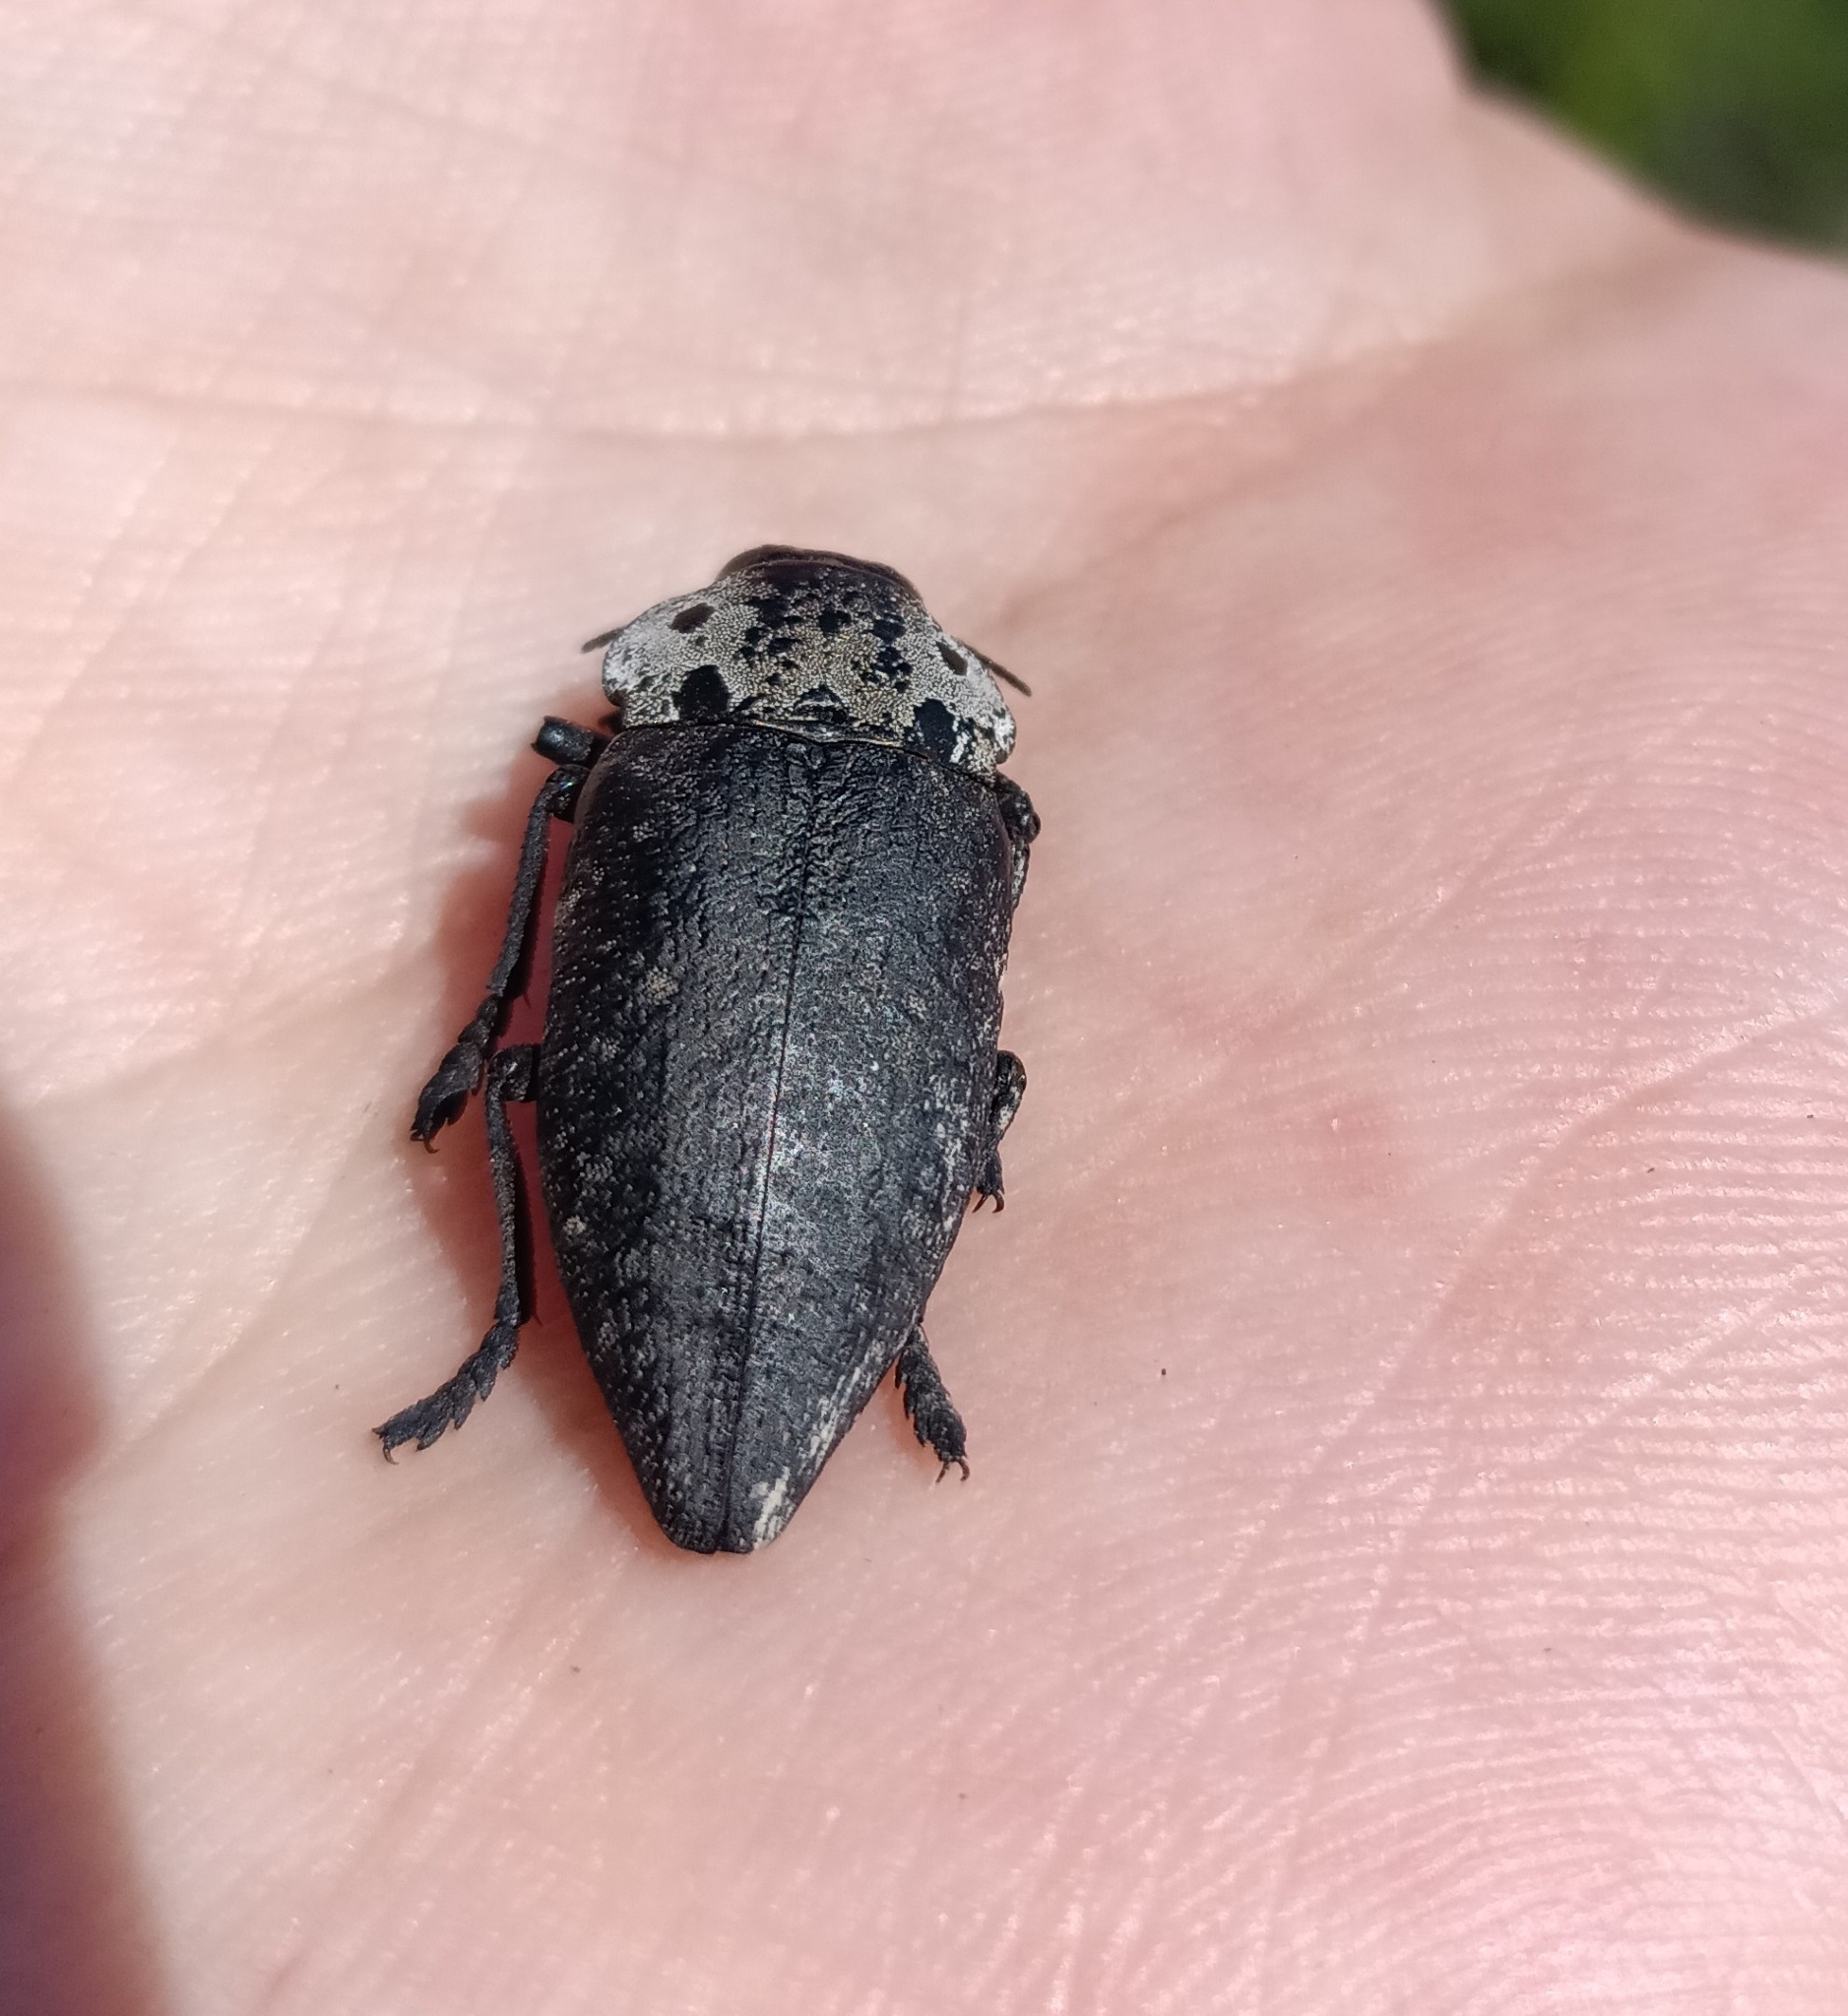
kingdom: Animalia
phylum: Arthropoda
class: Insecta
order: Coleoptera
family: Buprestidae
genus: Capnodis
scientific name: Capnodis tenebrionis
